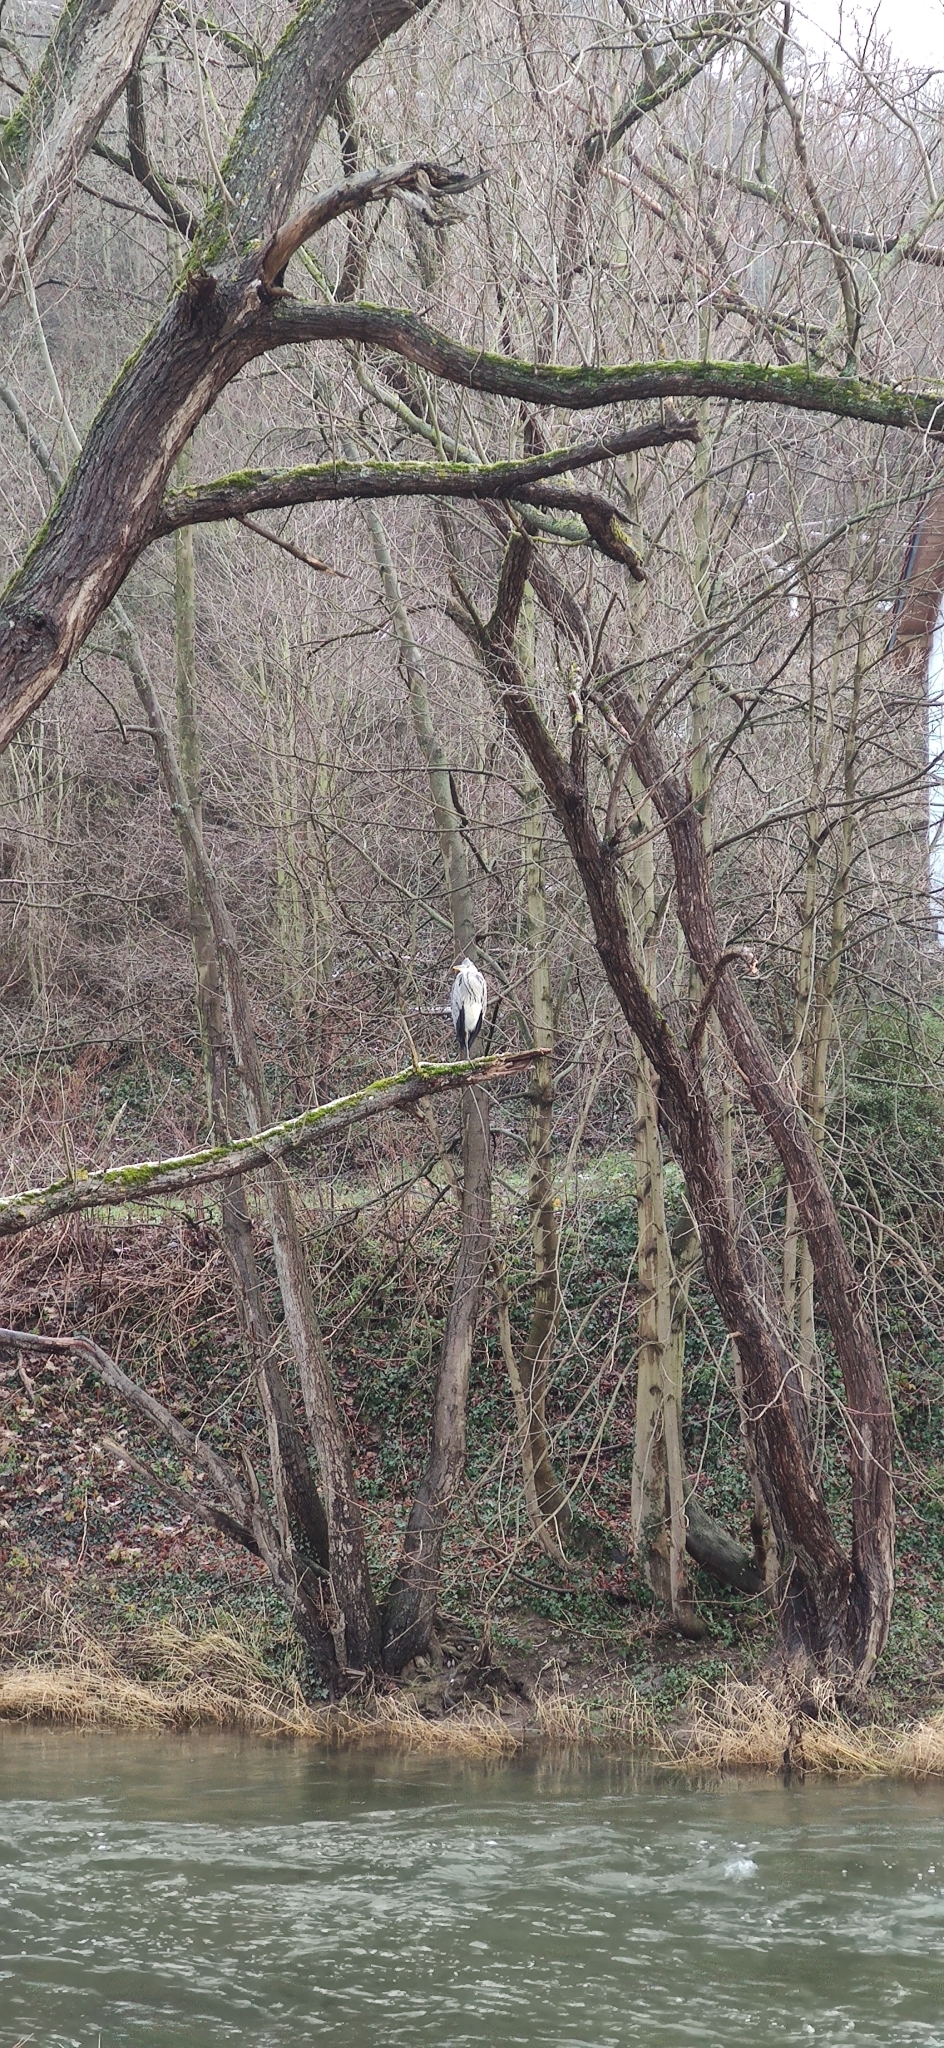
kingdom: Animalia
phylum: Chordata
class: Aves
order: Pelecaniformes
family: Ardeidae
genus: Ardea
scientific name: Ardea cinerea
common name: Grey heron
